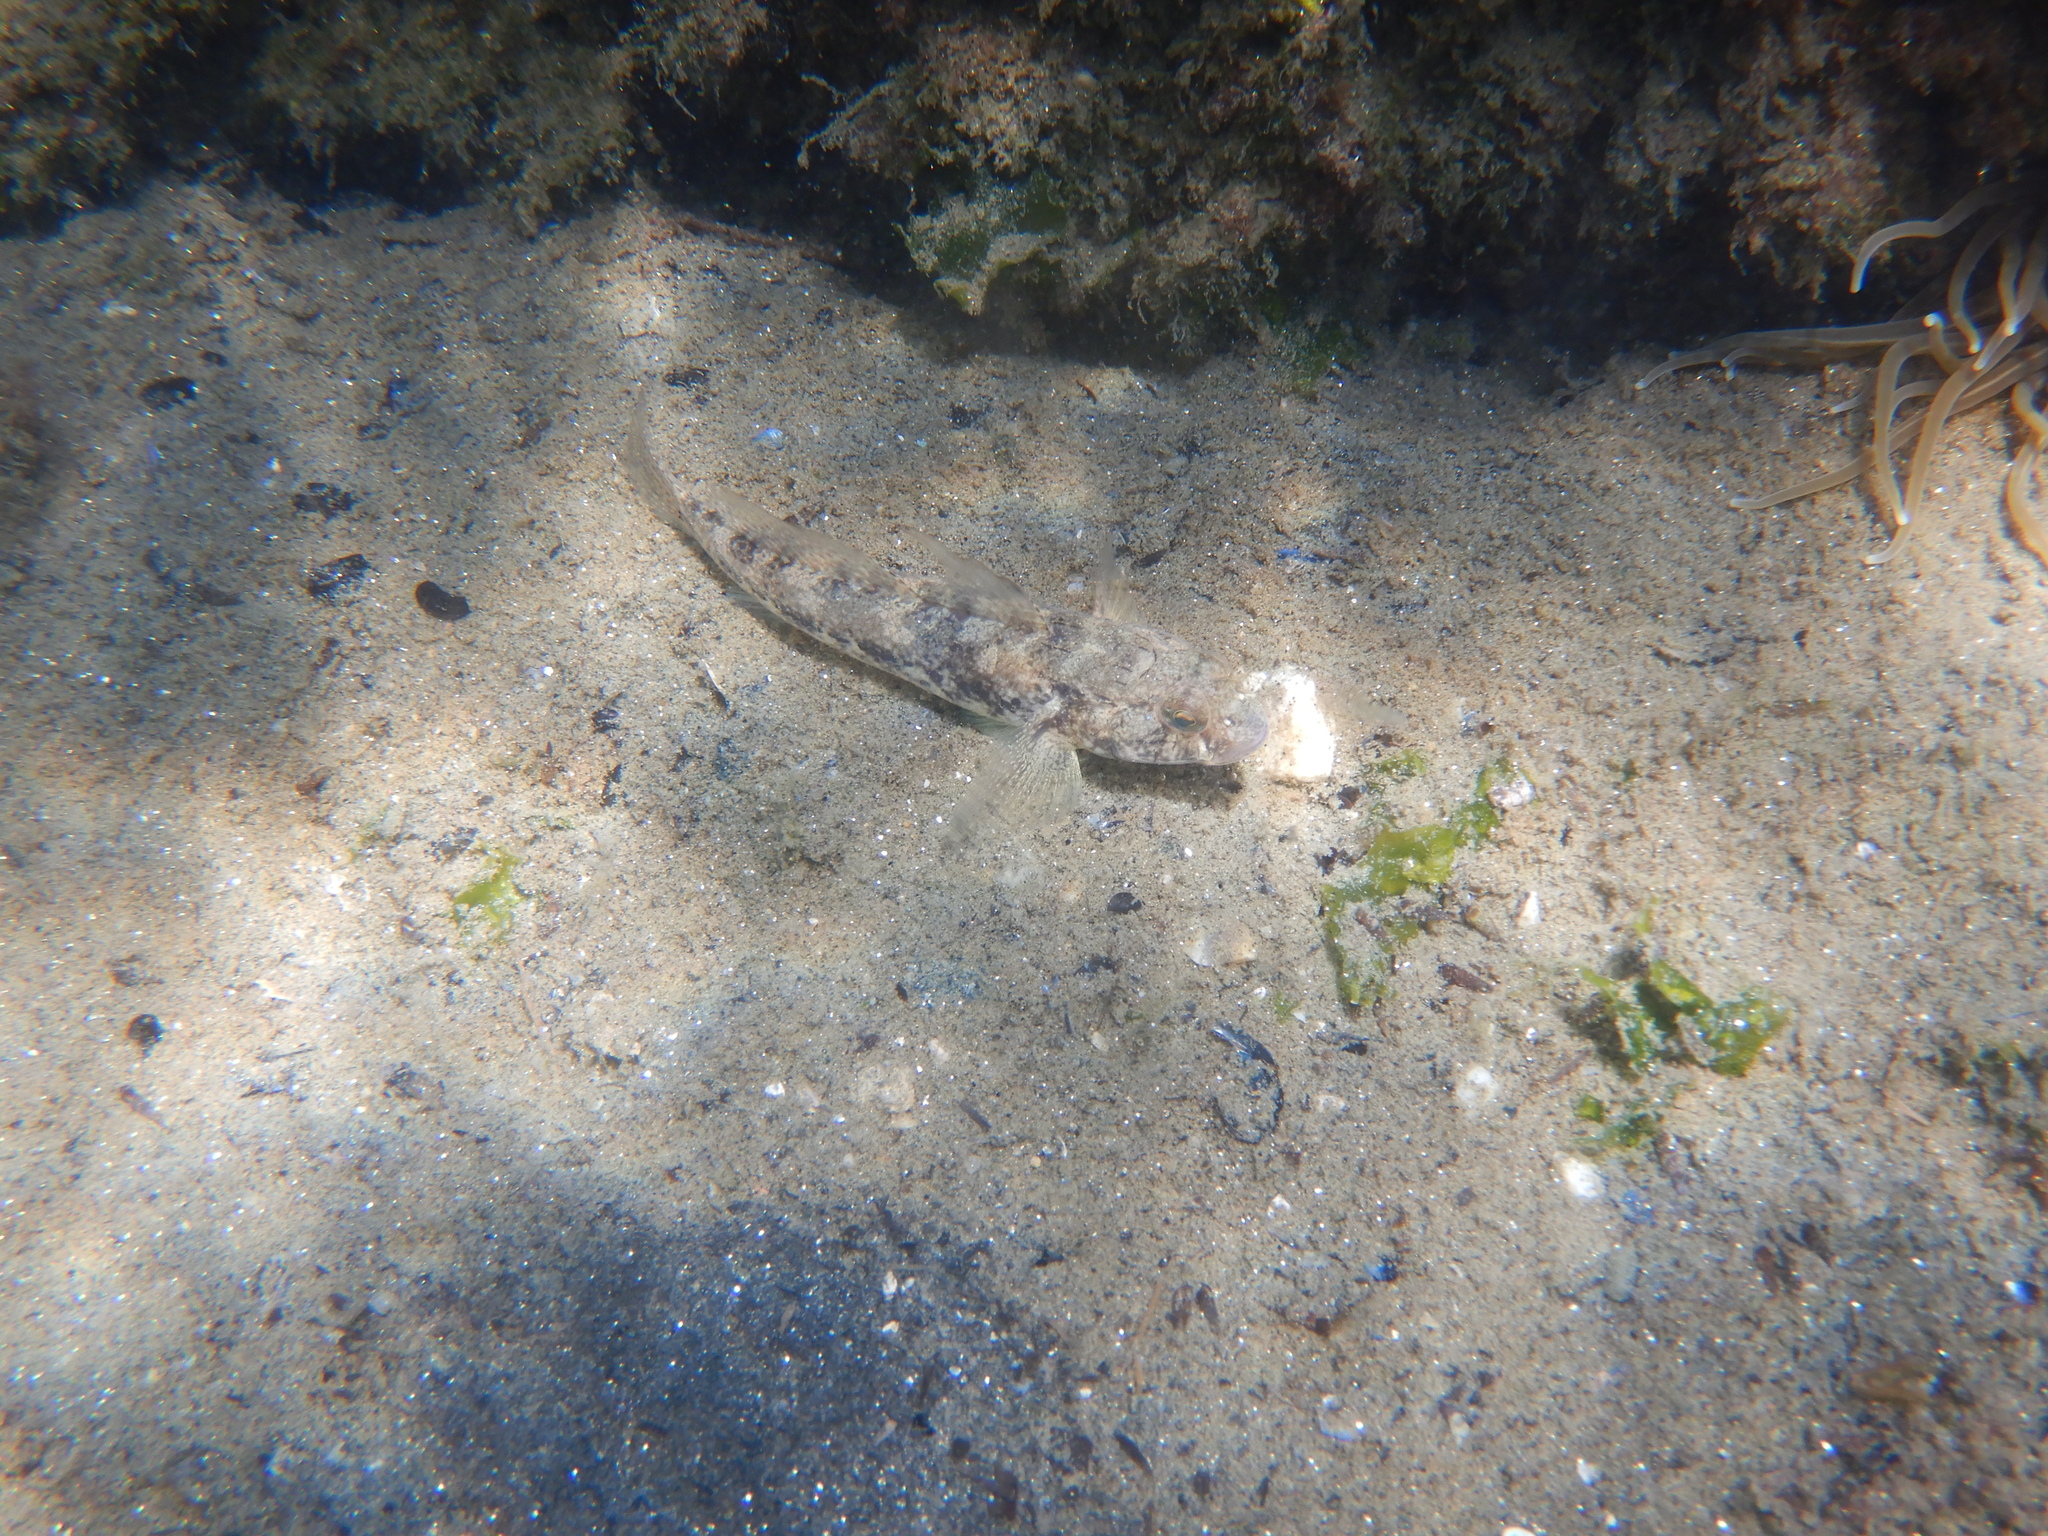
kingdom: Animalia
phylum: Chordata
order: Perciformes
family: Gobiidae
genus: Gobius
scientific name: Gobius niger
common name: Black goby
